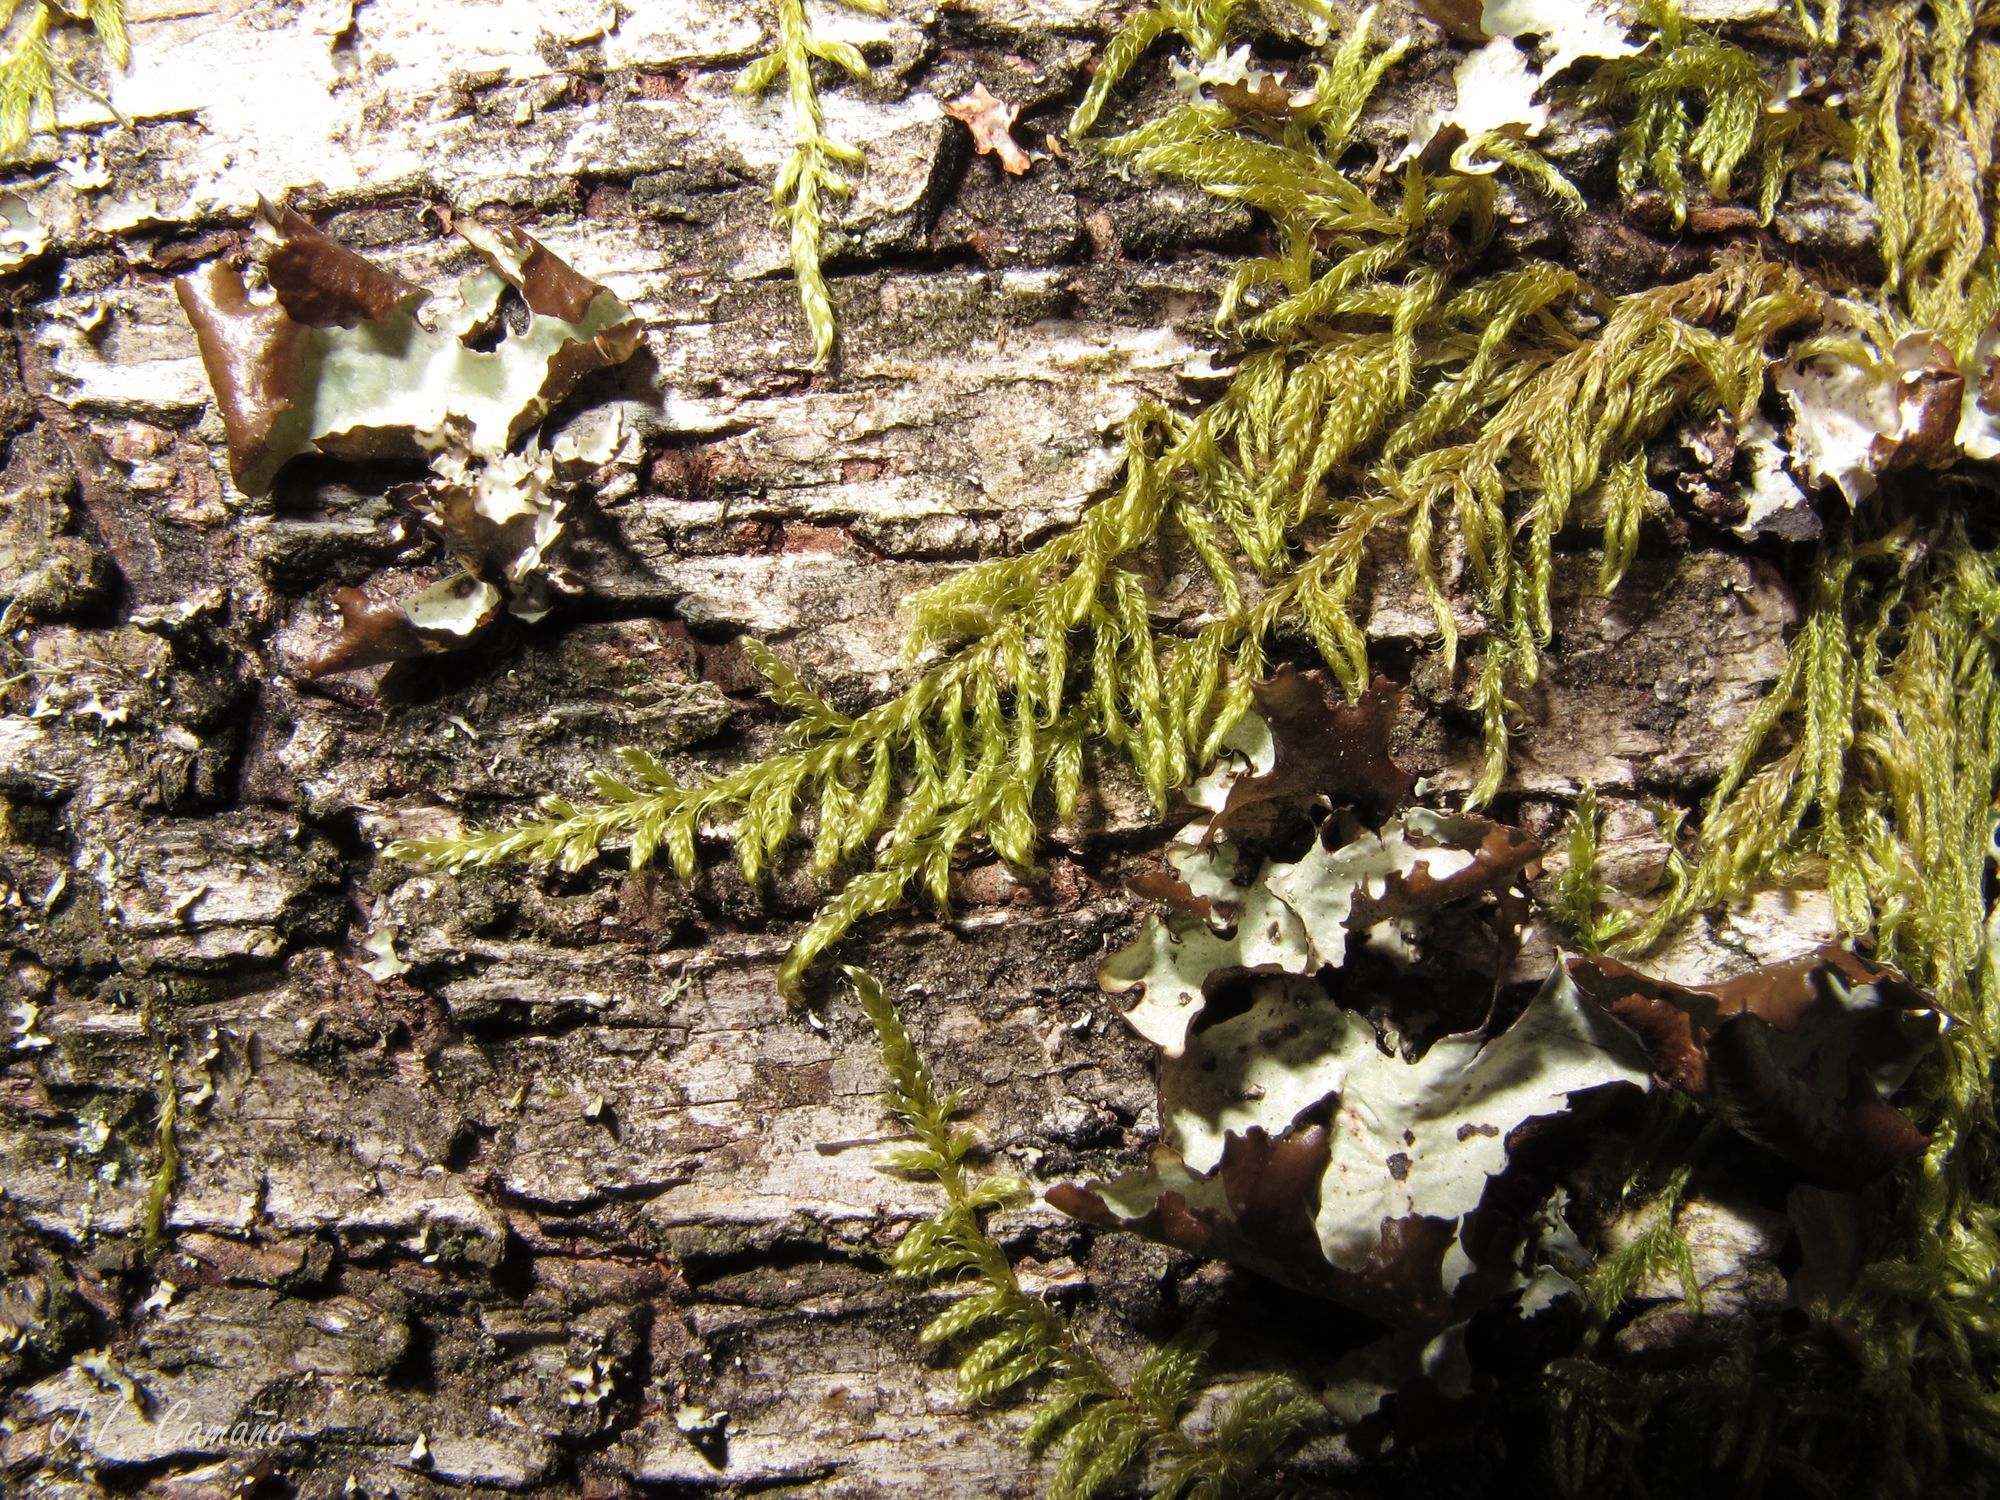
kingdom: Plantae
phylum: Bryophyta
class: Bryopsida
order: Hypnales
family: Hypnaceae
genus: Hypnum
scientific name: Hypnum cupressiforme
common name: Cypress-leaved plait-moss
